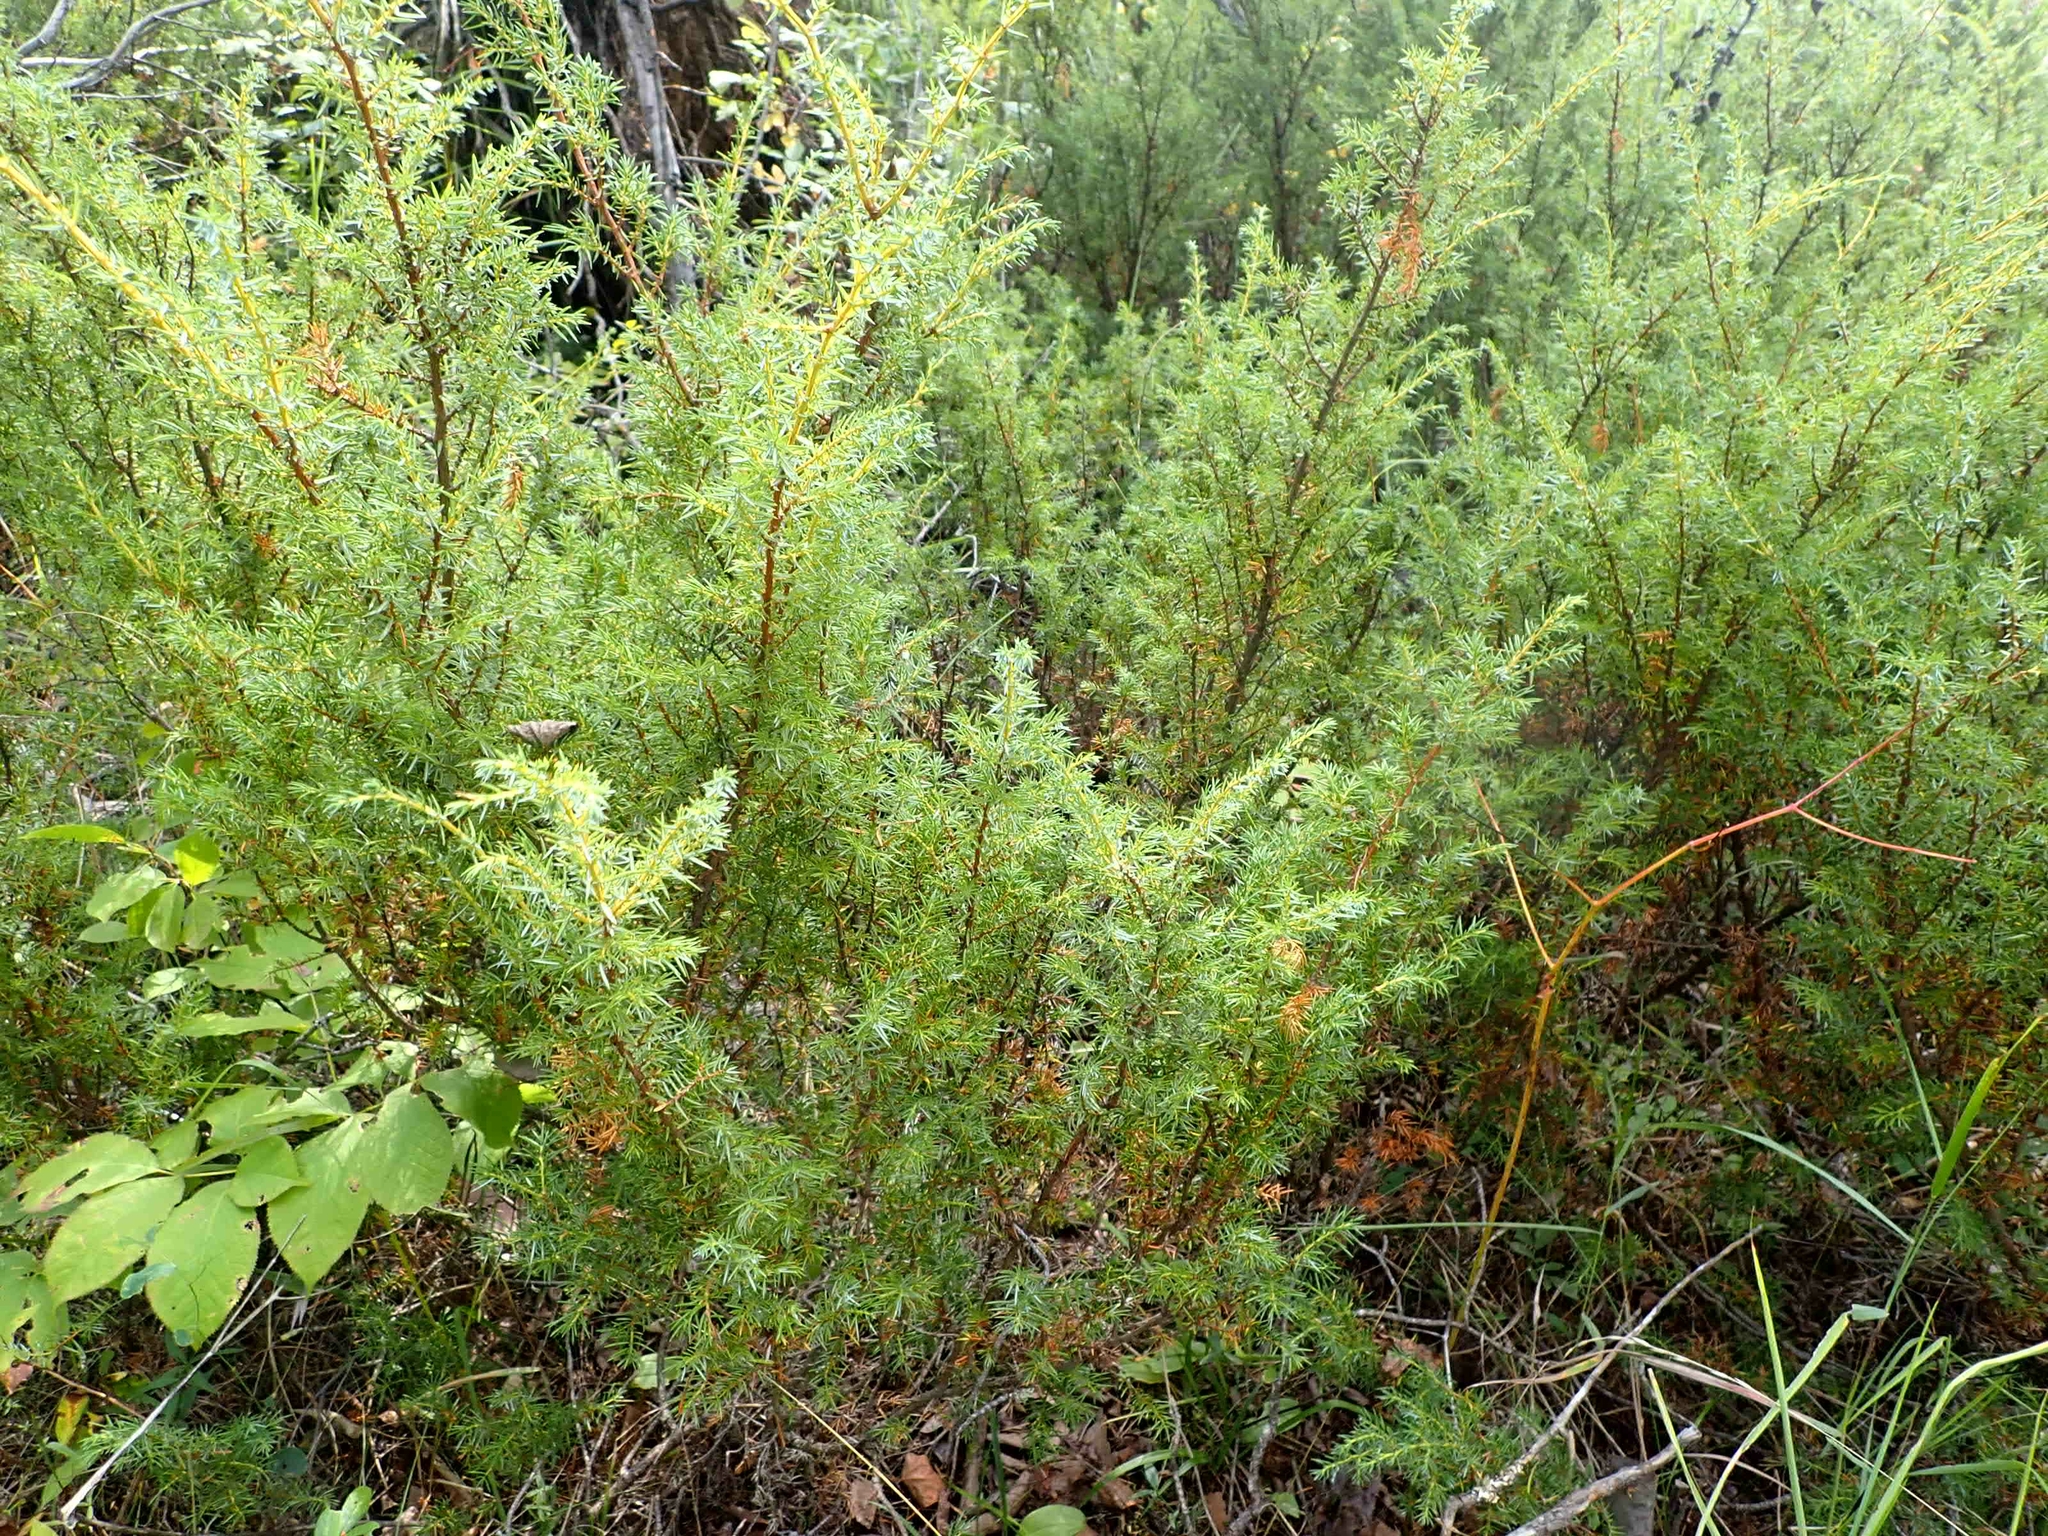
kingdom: Plantae
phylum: Tracheophyta
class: Pinopsida
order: Pinales
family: Cupressaceae
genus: Juniperus
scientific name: Juniperus communis
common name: Common juniper
